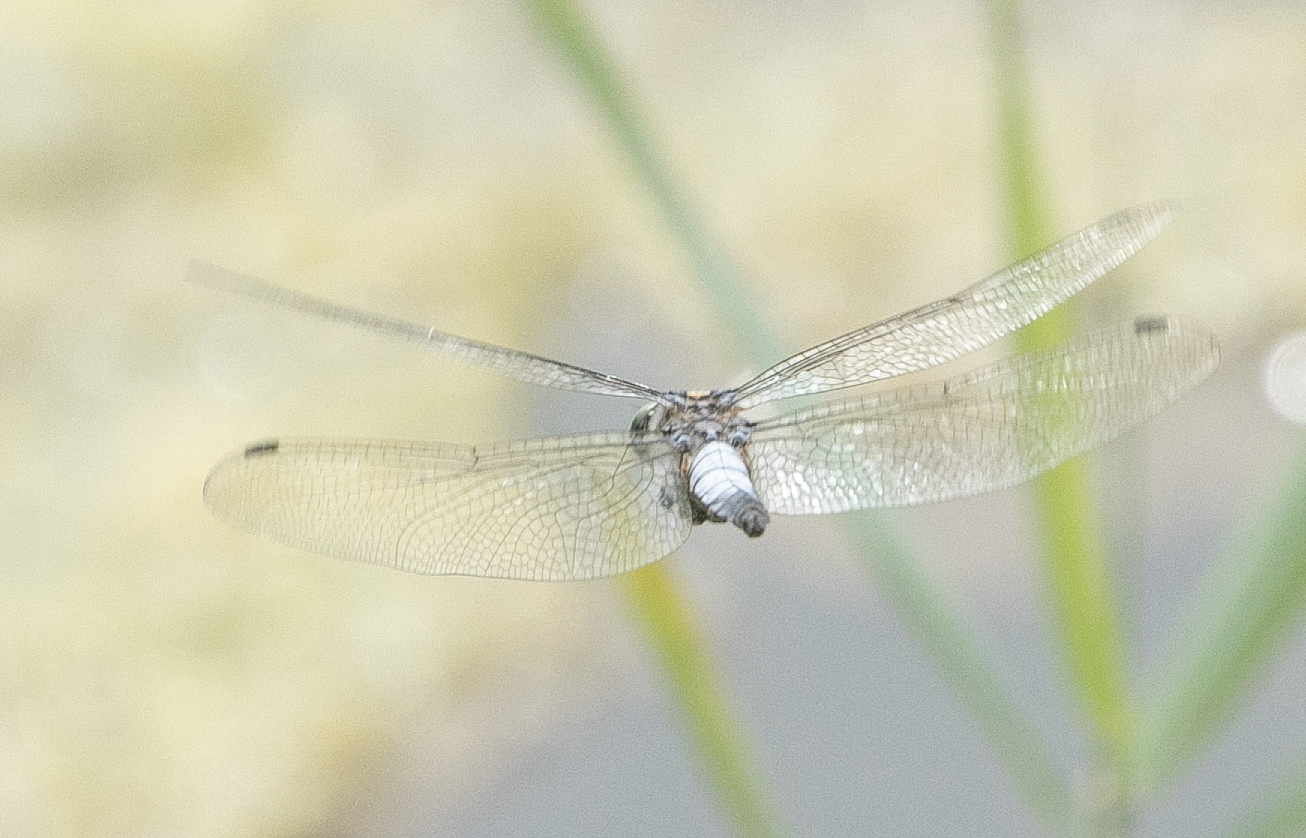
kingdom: Animalia
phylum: Arthropoda
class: Insecta
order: Odonata
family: Libellulidae
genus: Orthetrum
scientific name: Orthetrum cancellatum
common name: Black-tailed skimmer
